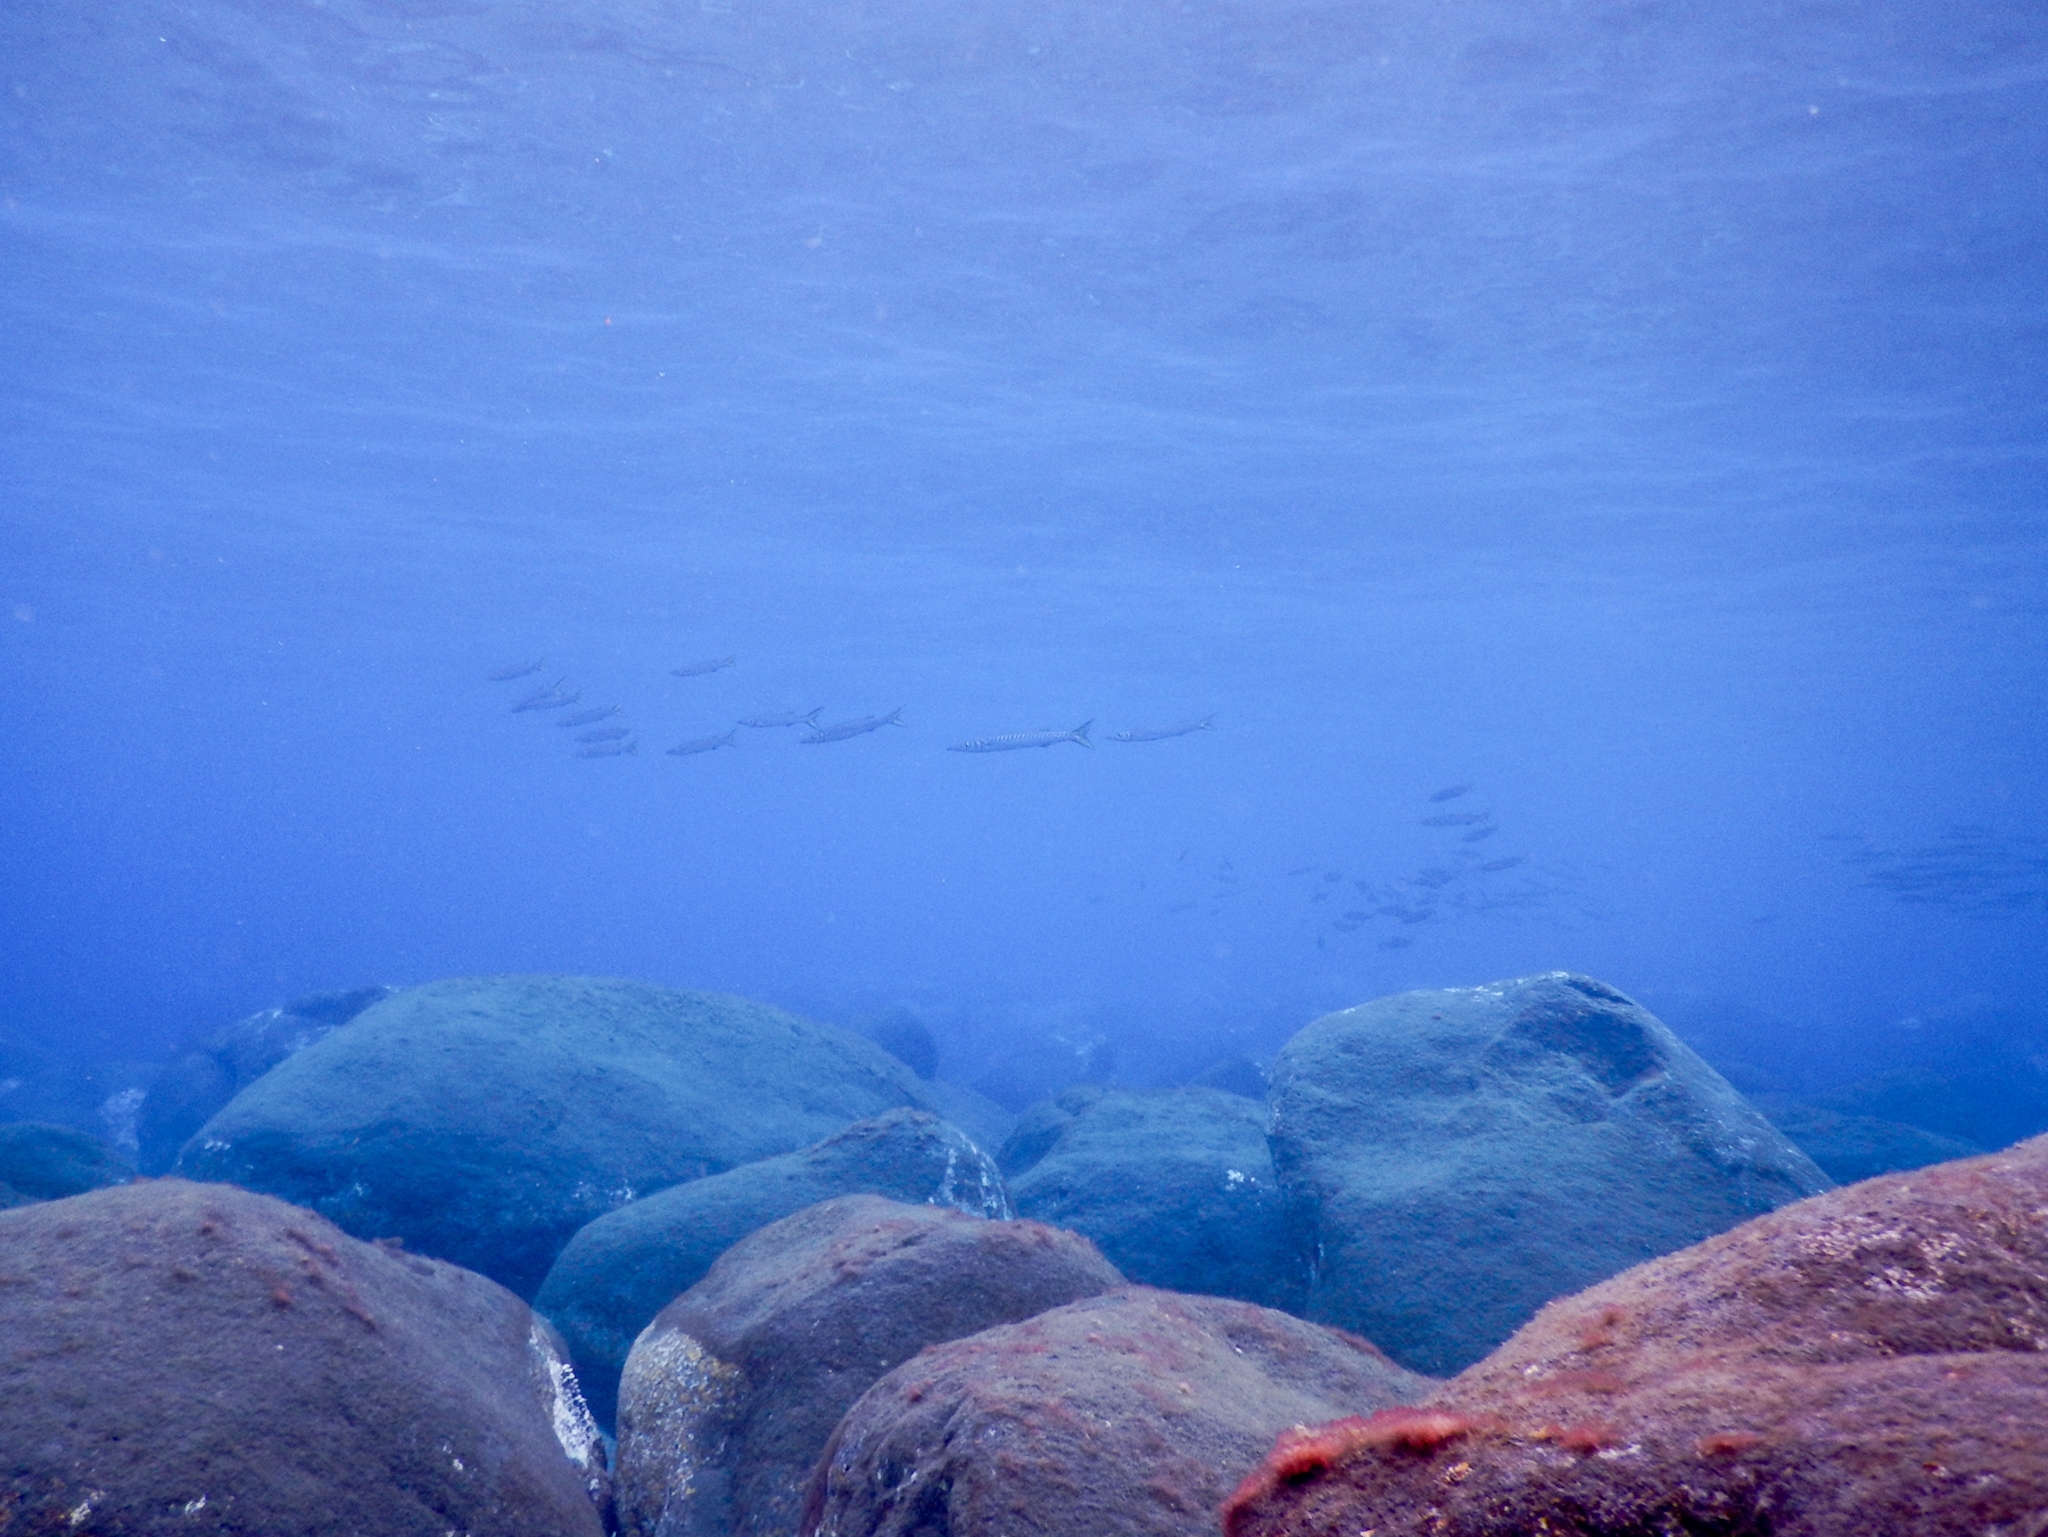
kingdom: Animalia
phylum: Chordata
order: Perciformes
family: Sphyraenidae
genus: Sphyraena
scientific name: Sphyraena viridensis
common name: Yellowmouth barracuda
